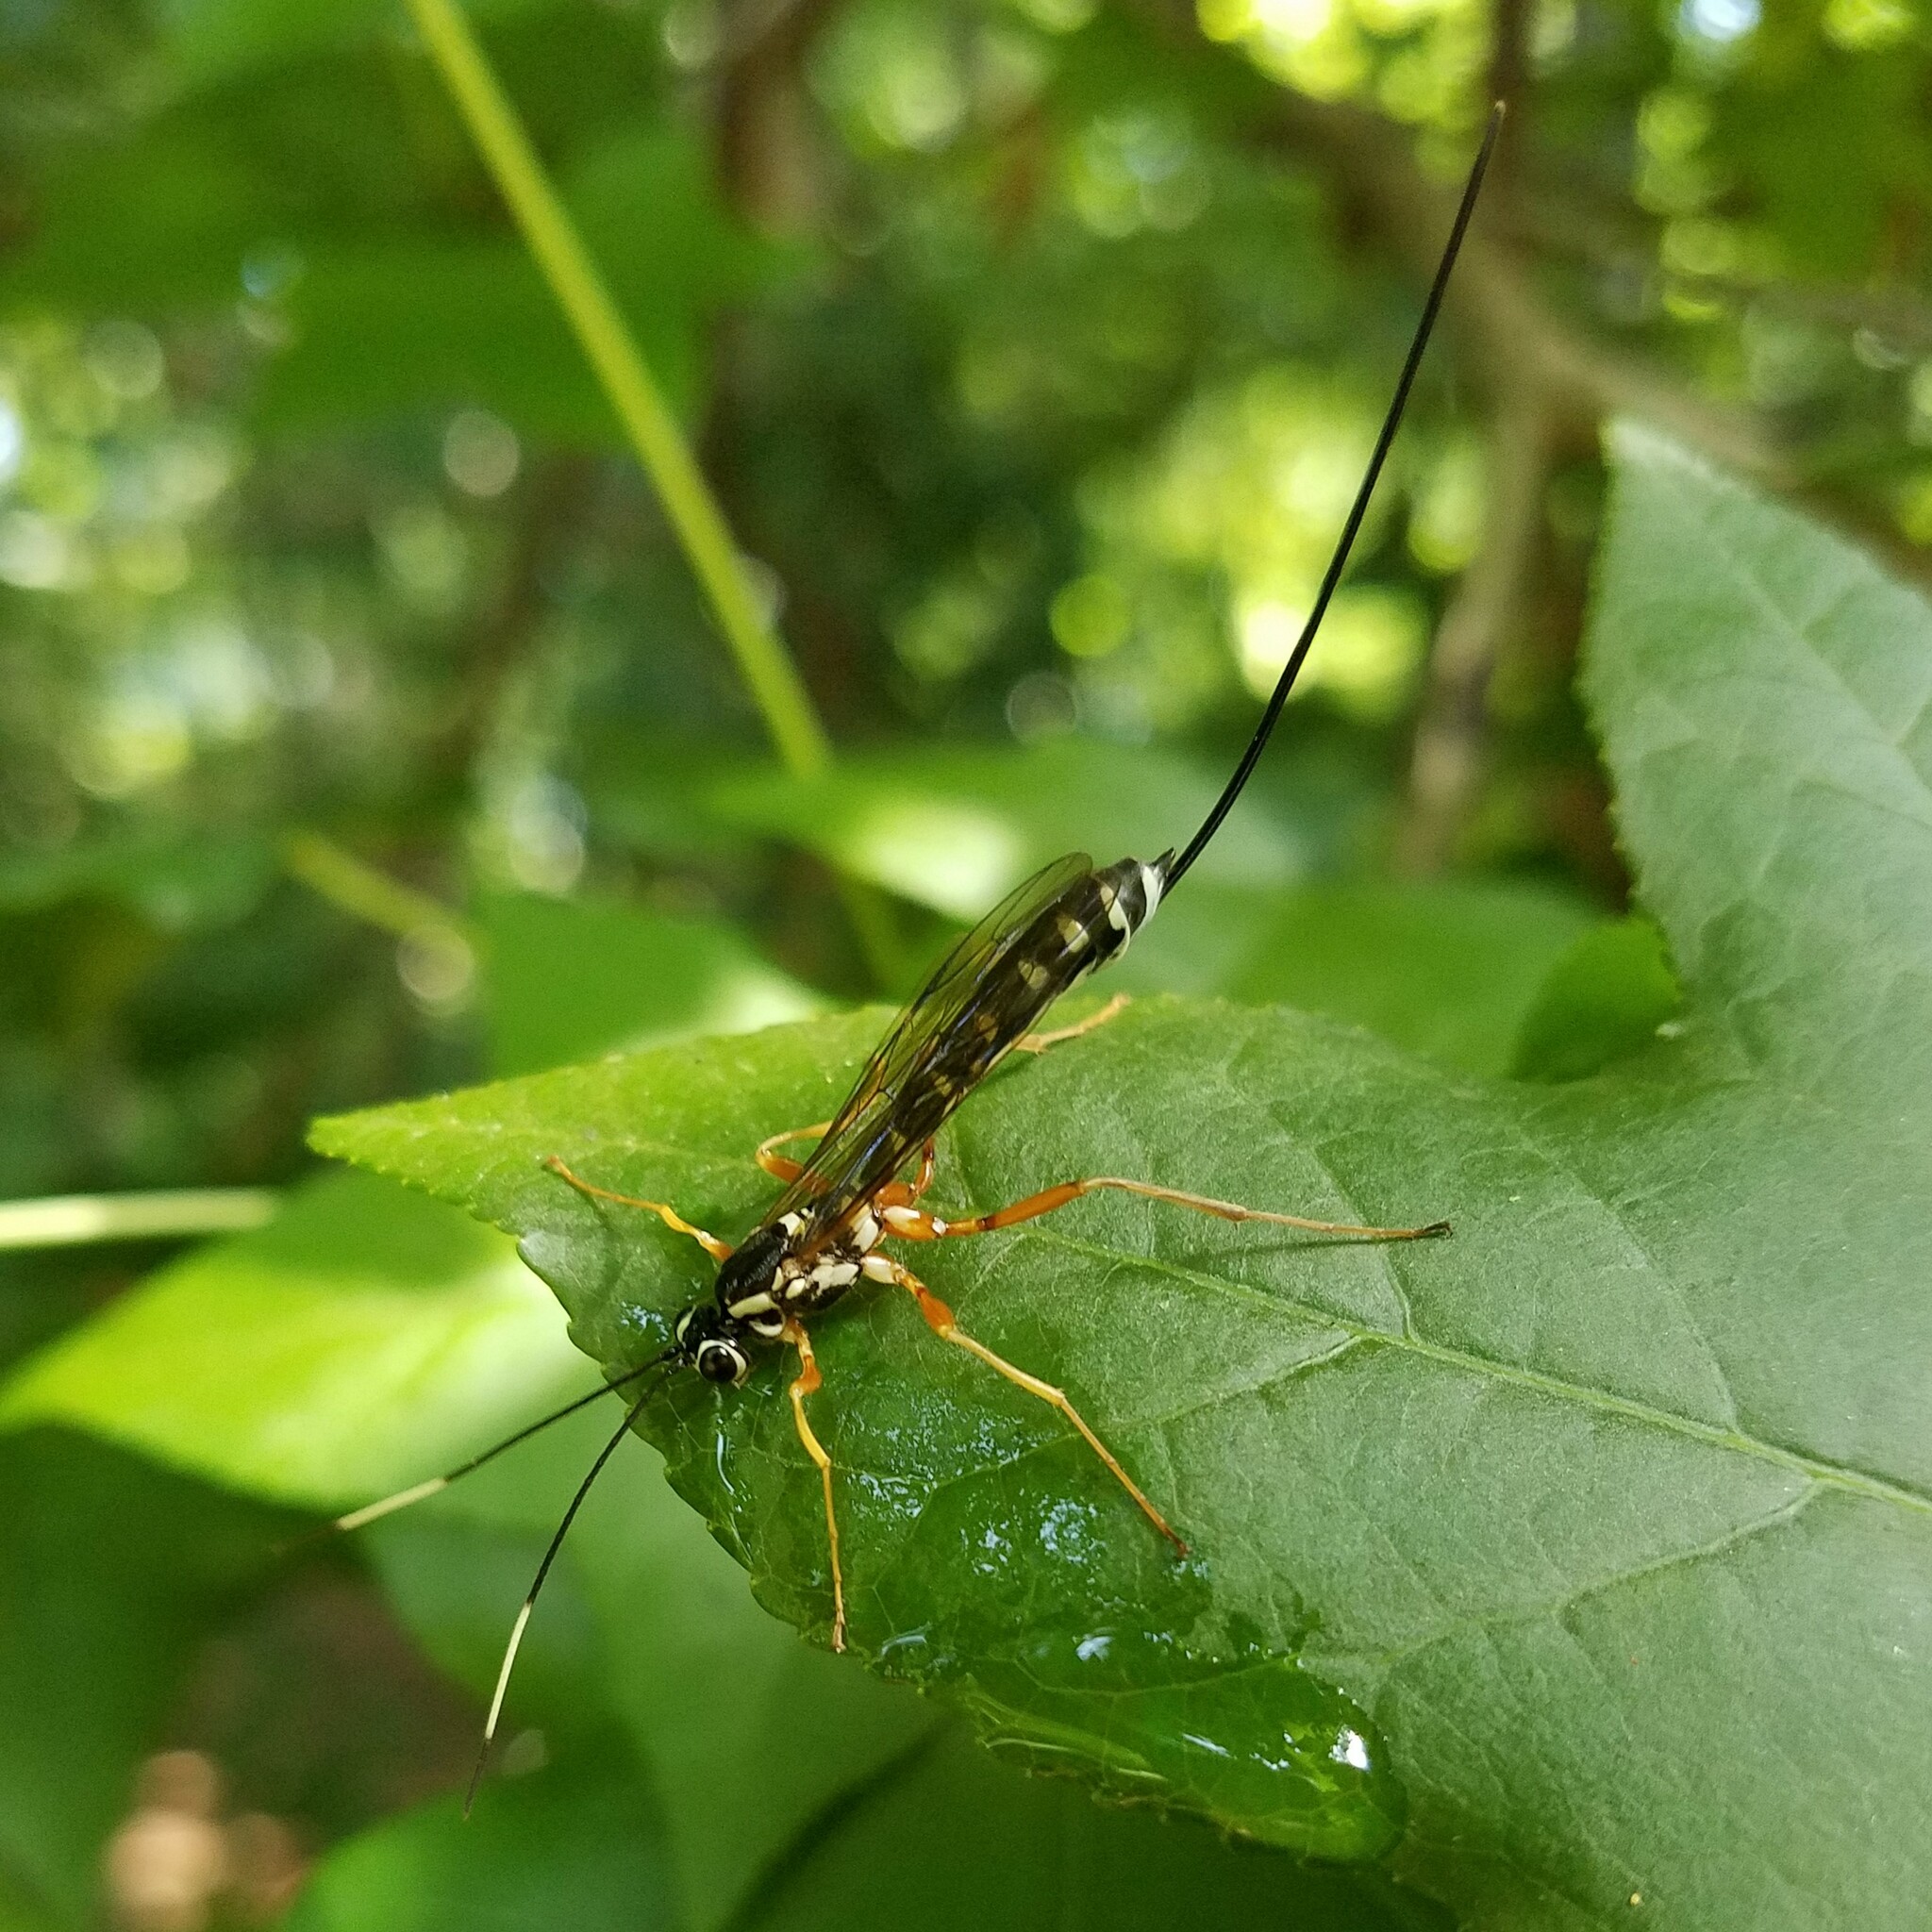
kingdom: Animalia
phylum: Arthropoda
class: Insecta
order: Hymenoptera
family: Ichneumonidae
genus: Rhyssa
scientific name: Rhyssa lineolata
